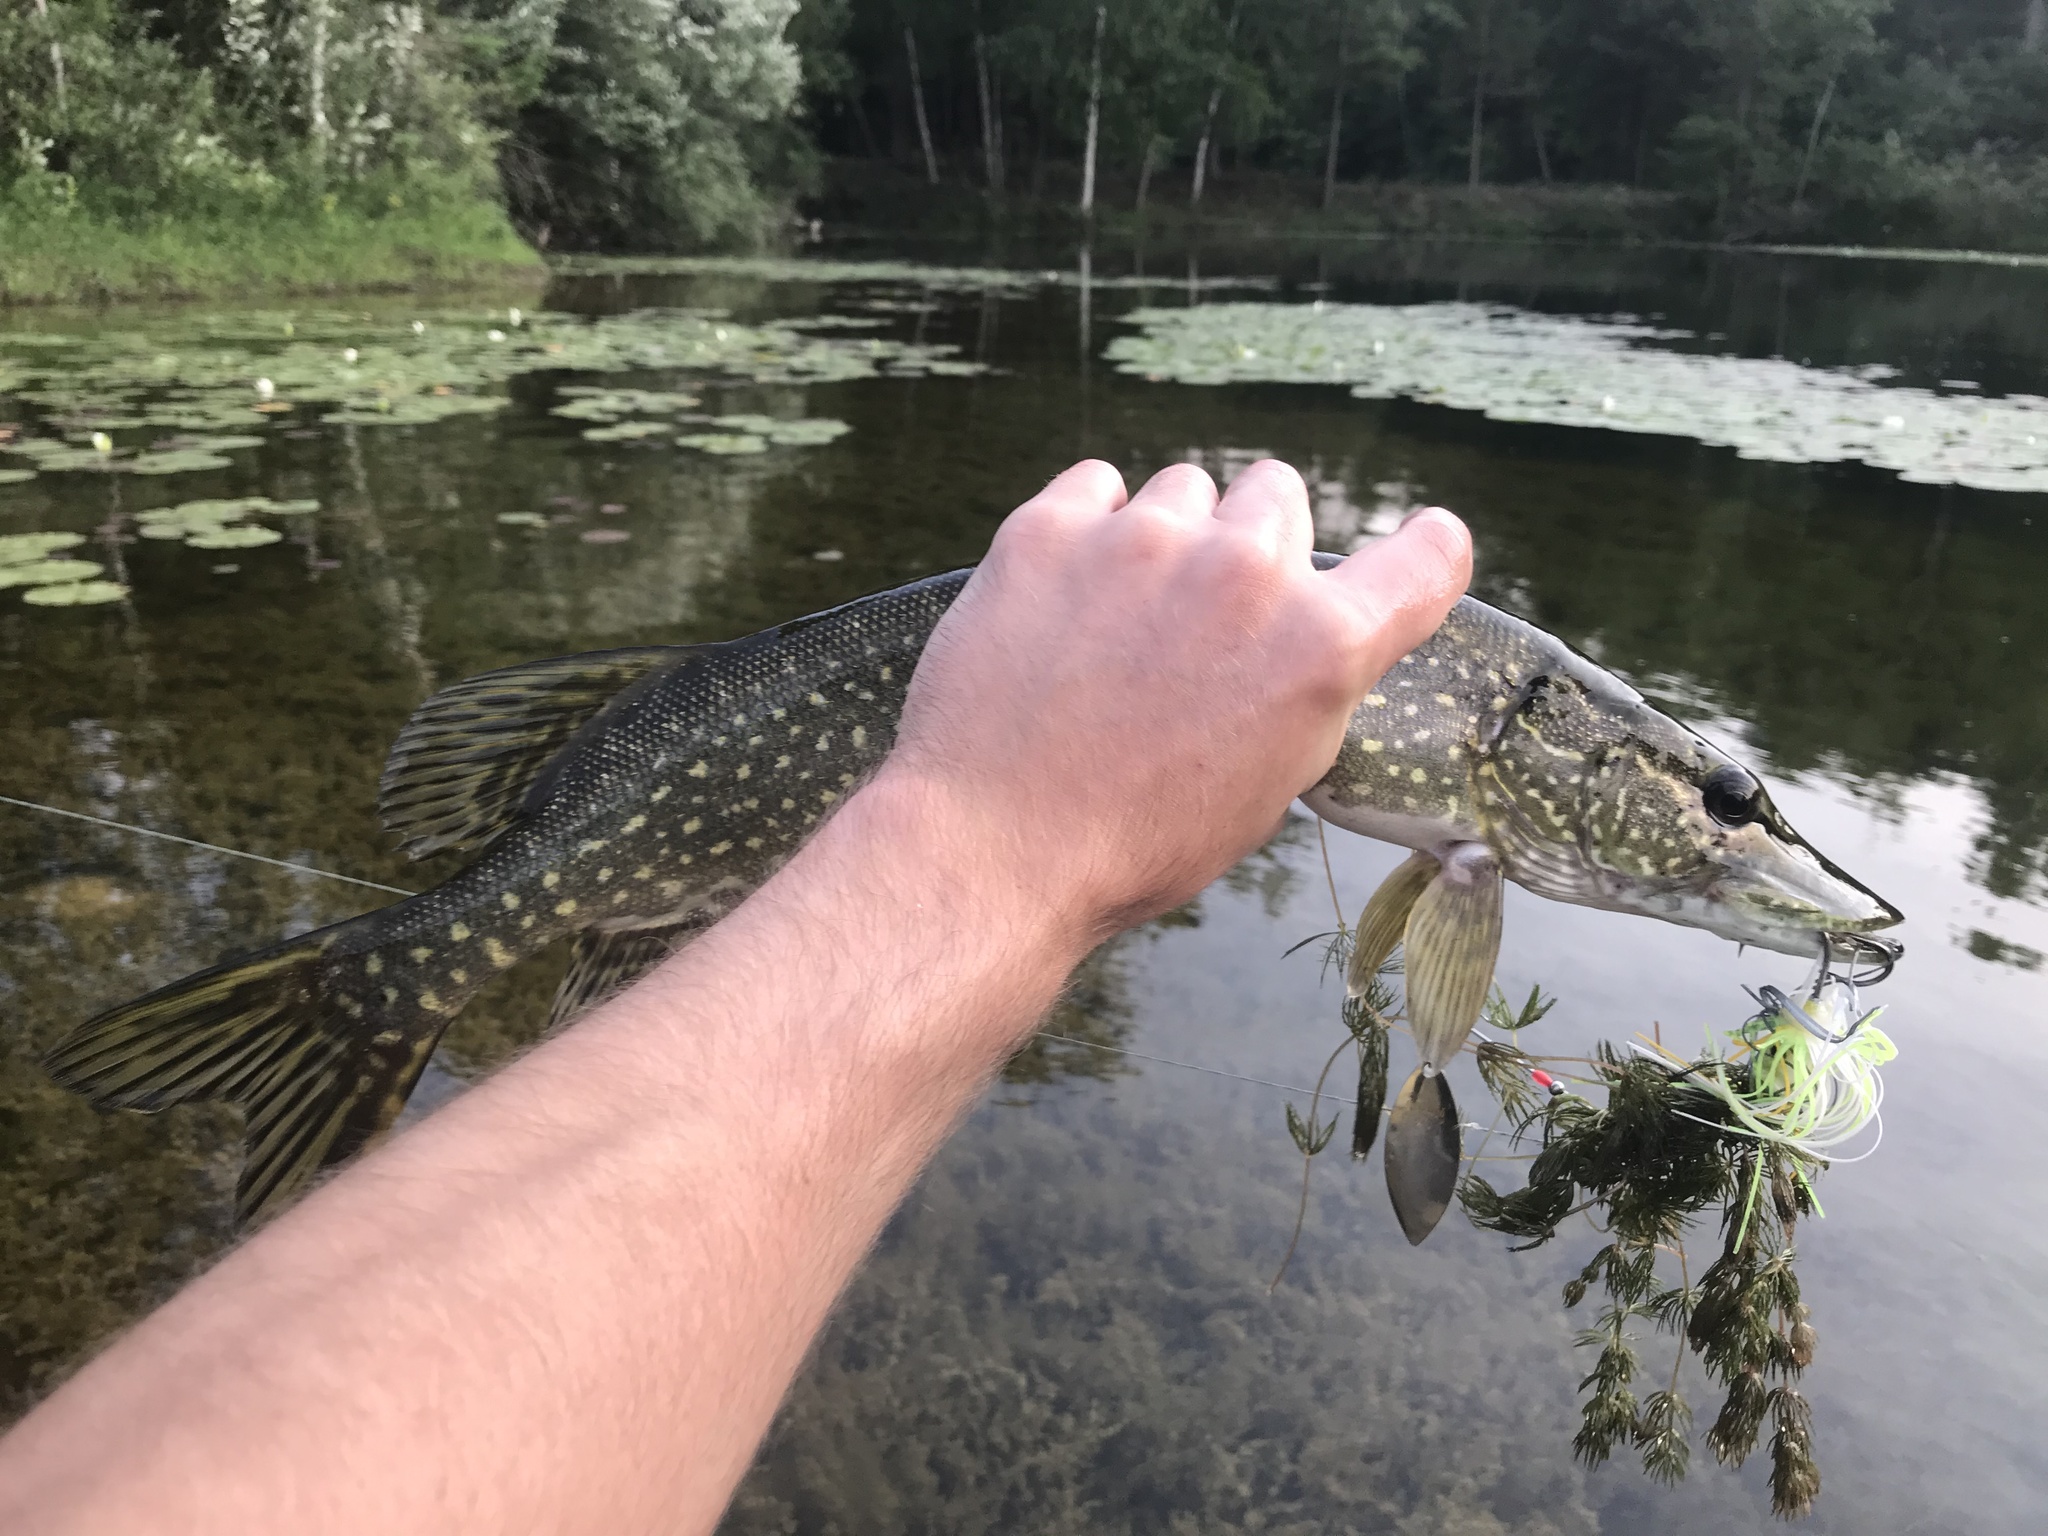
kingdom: Animalia
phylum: Chordata
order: Esociformes
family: Esocidae
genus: Esox
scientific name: Esox lucius
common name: Northern pike
